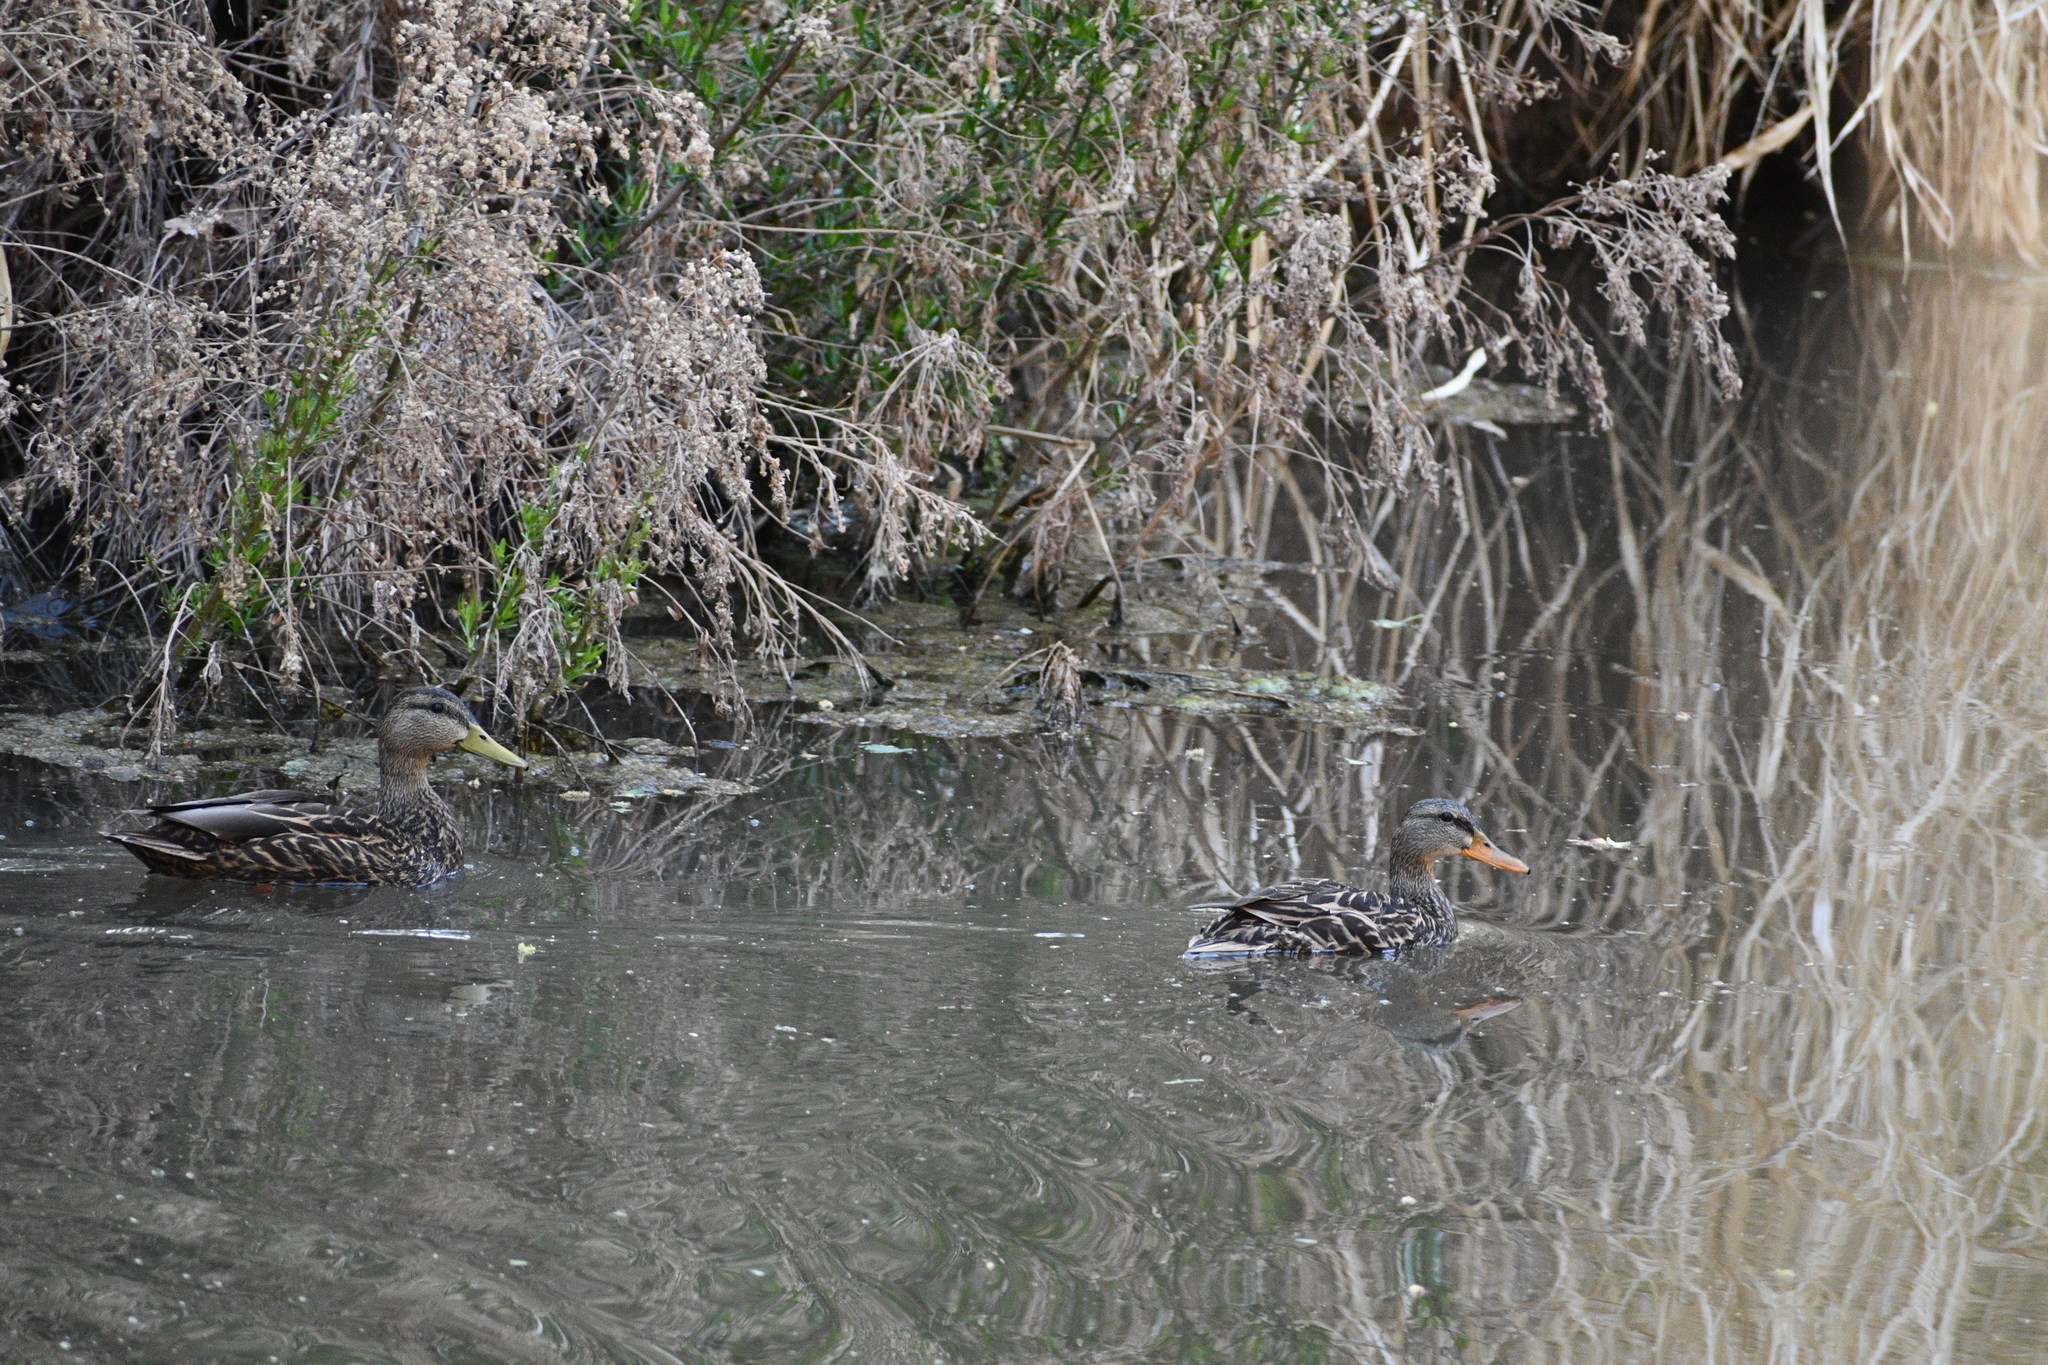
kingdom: Animalia
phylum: Chordata
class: Aves
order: Anseriformes
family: Anatidae
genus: Anas
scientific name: Anas diazi
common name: Mexican duck
